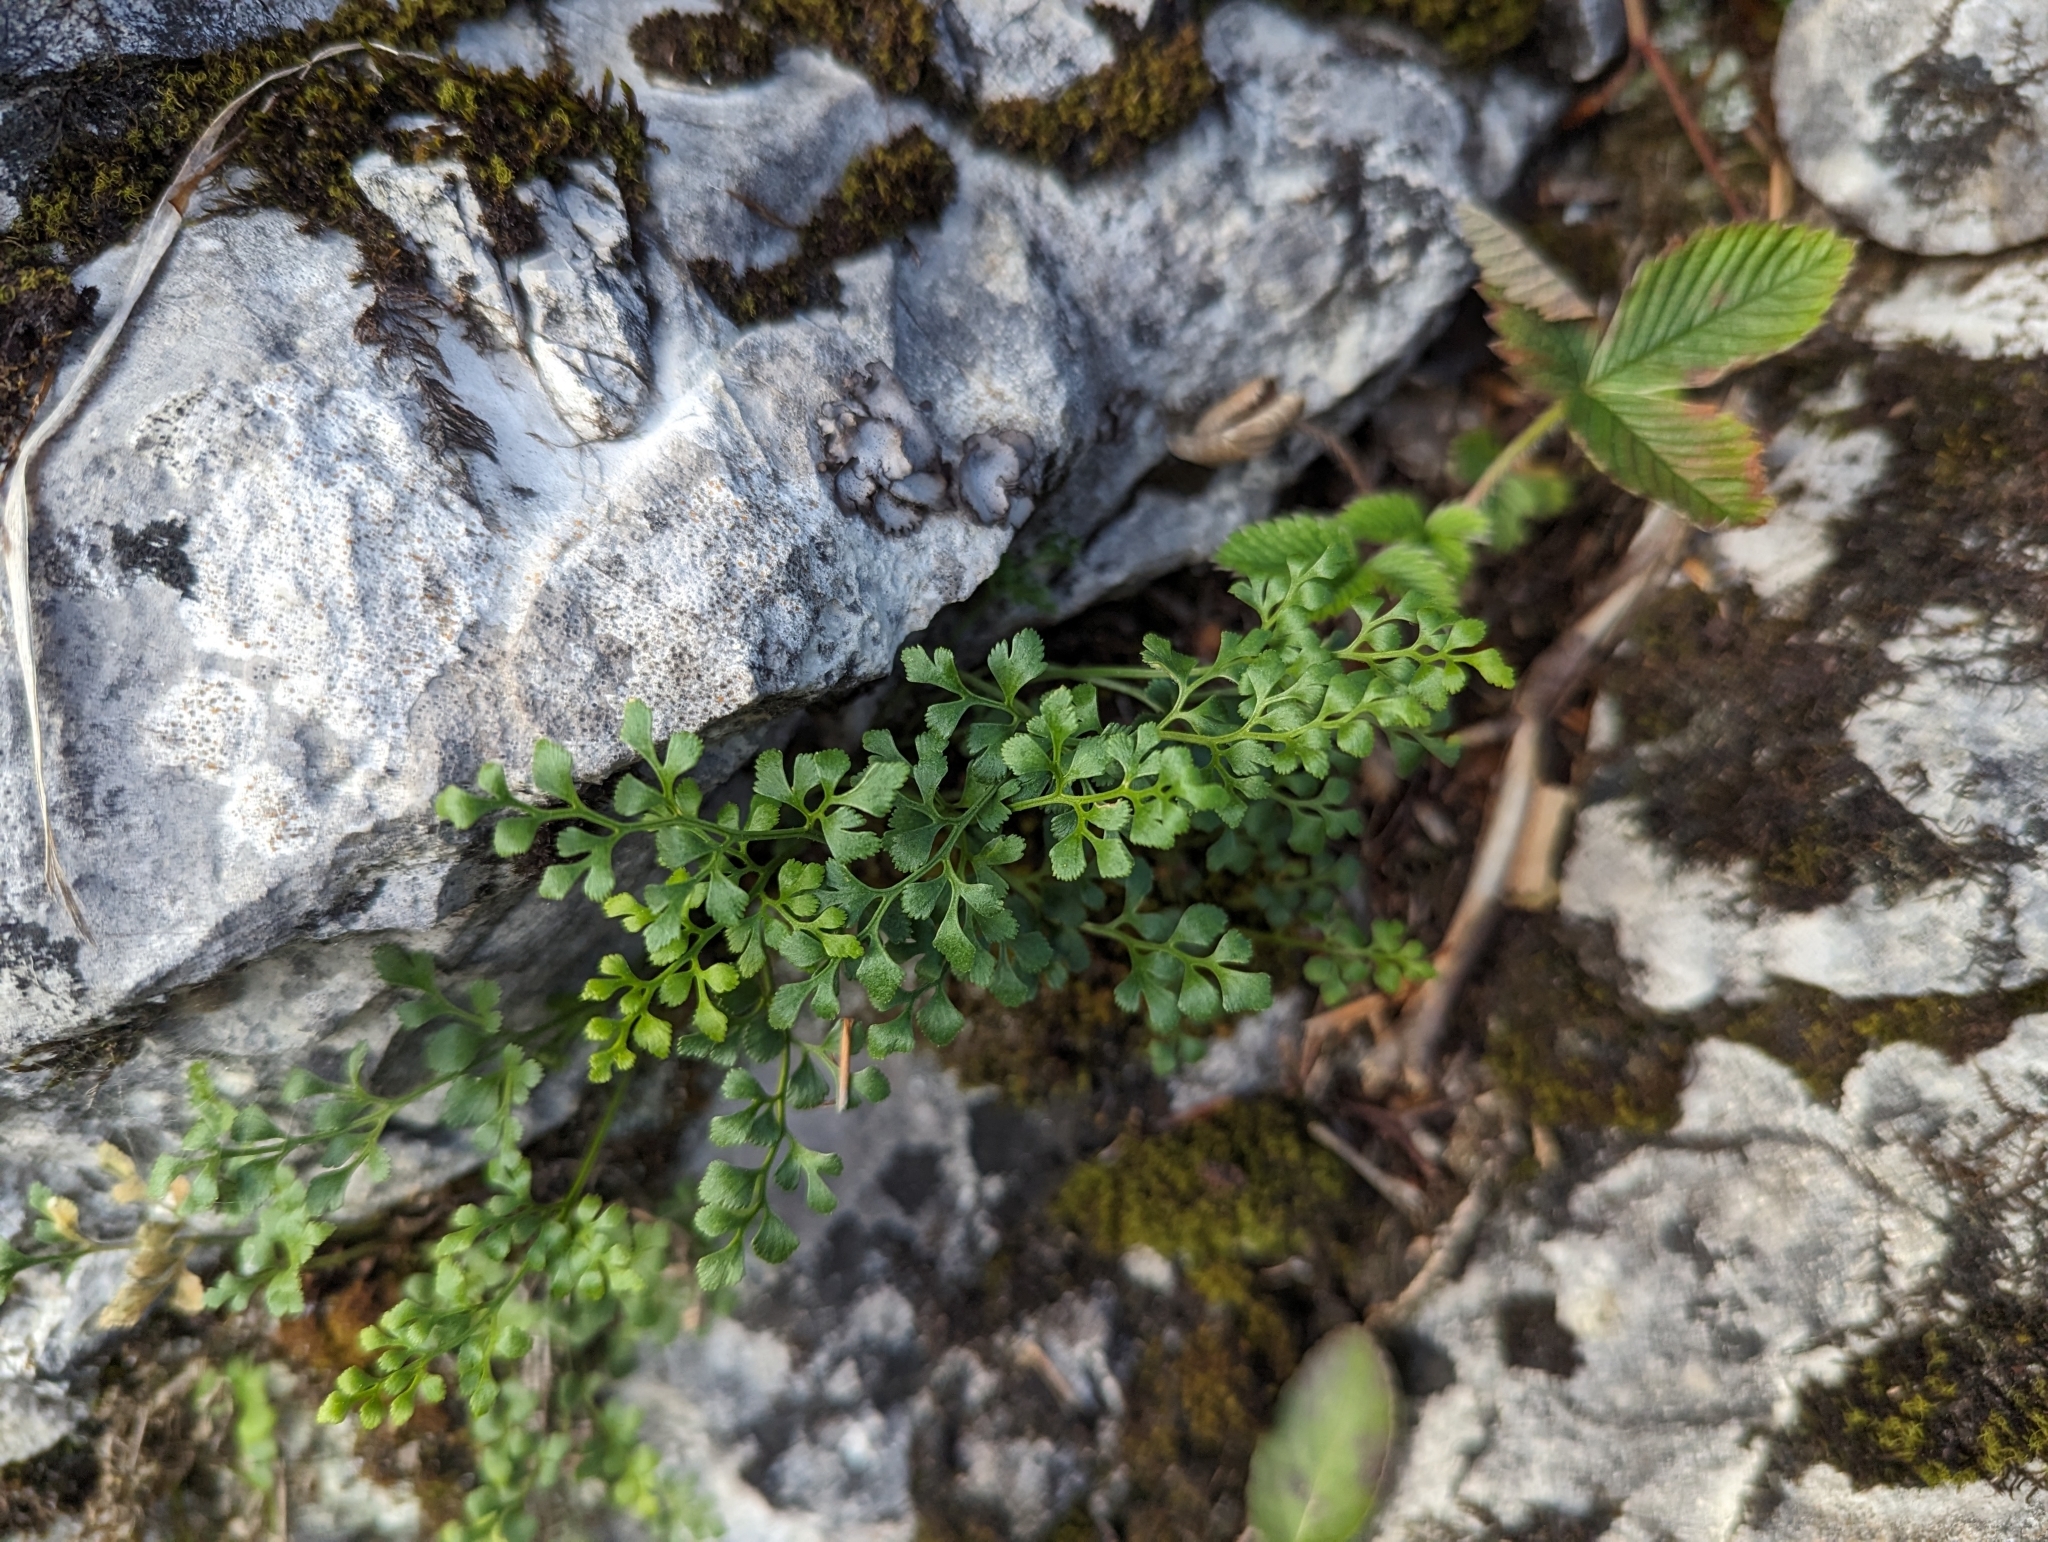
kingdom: Plantae
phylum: Tracheophyta
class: Polypodiopsida
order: Polypodiales
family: Aspleniaceae
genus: Asplenium
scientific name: Asplenium ruta-muraria
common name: Wall-rue
